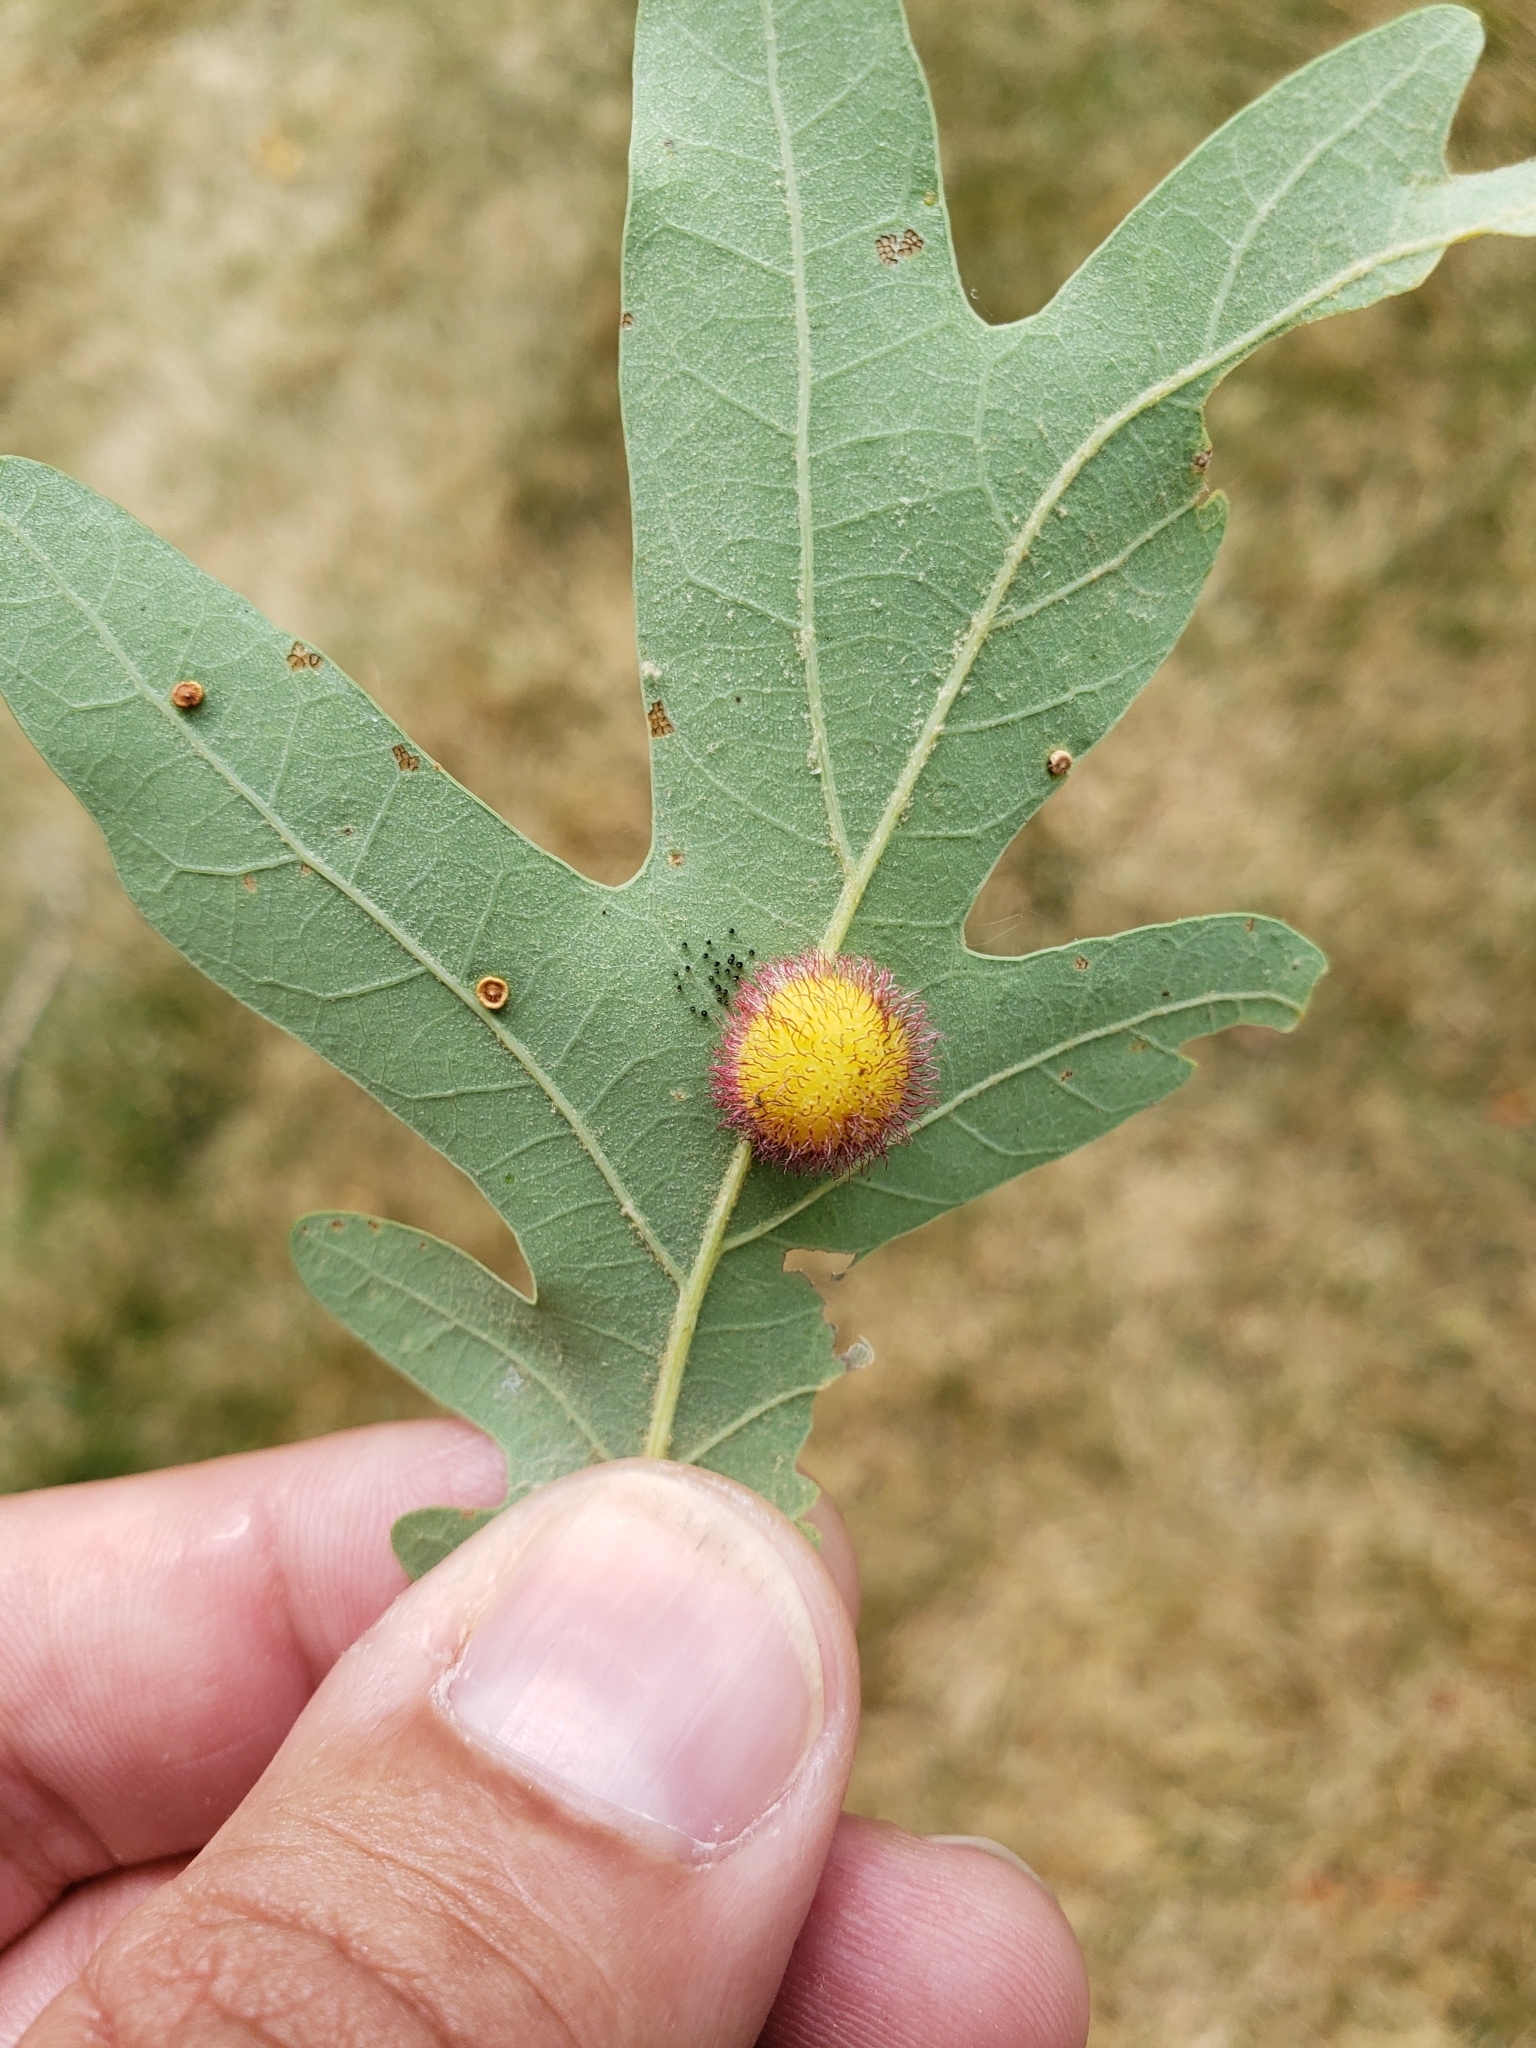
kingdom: Animalia
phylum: Arthropoda
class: Insecta
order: Hymenoptera
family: Cynipidae
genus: Acraspis
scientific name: Acraspis erinacei
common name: Hedgehog gall wasp
